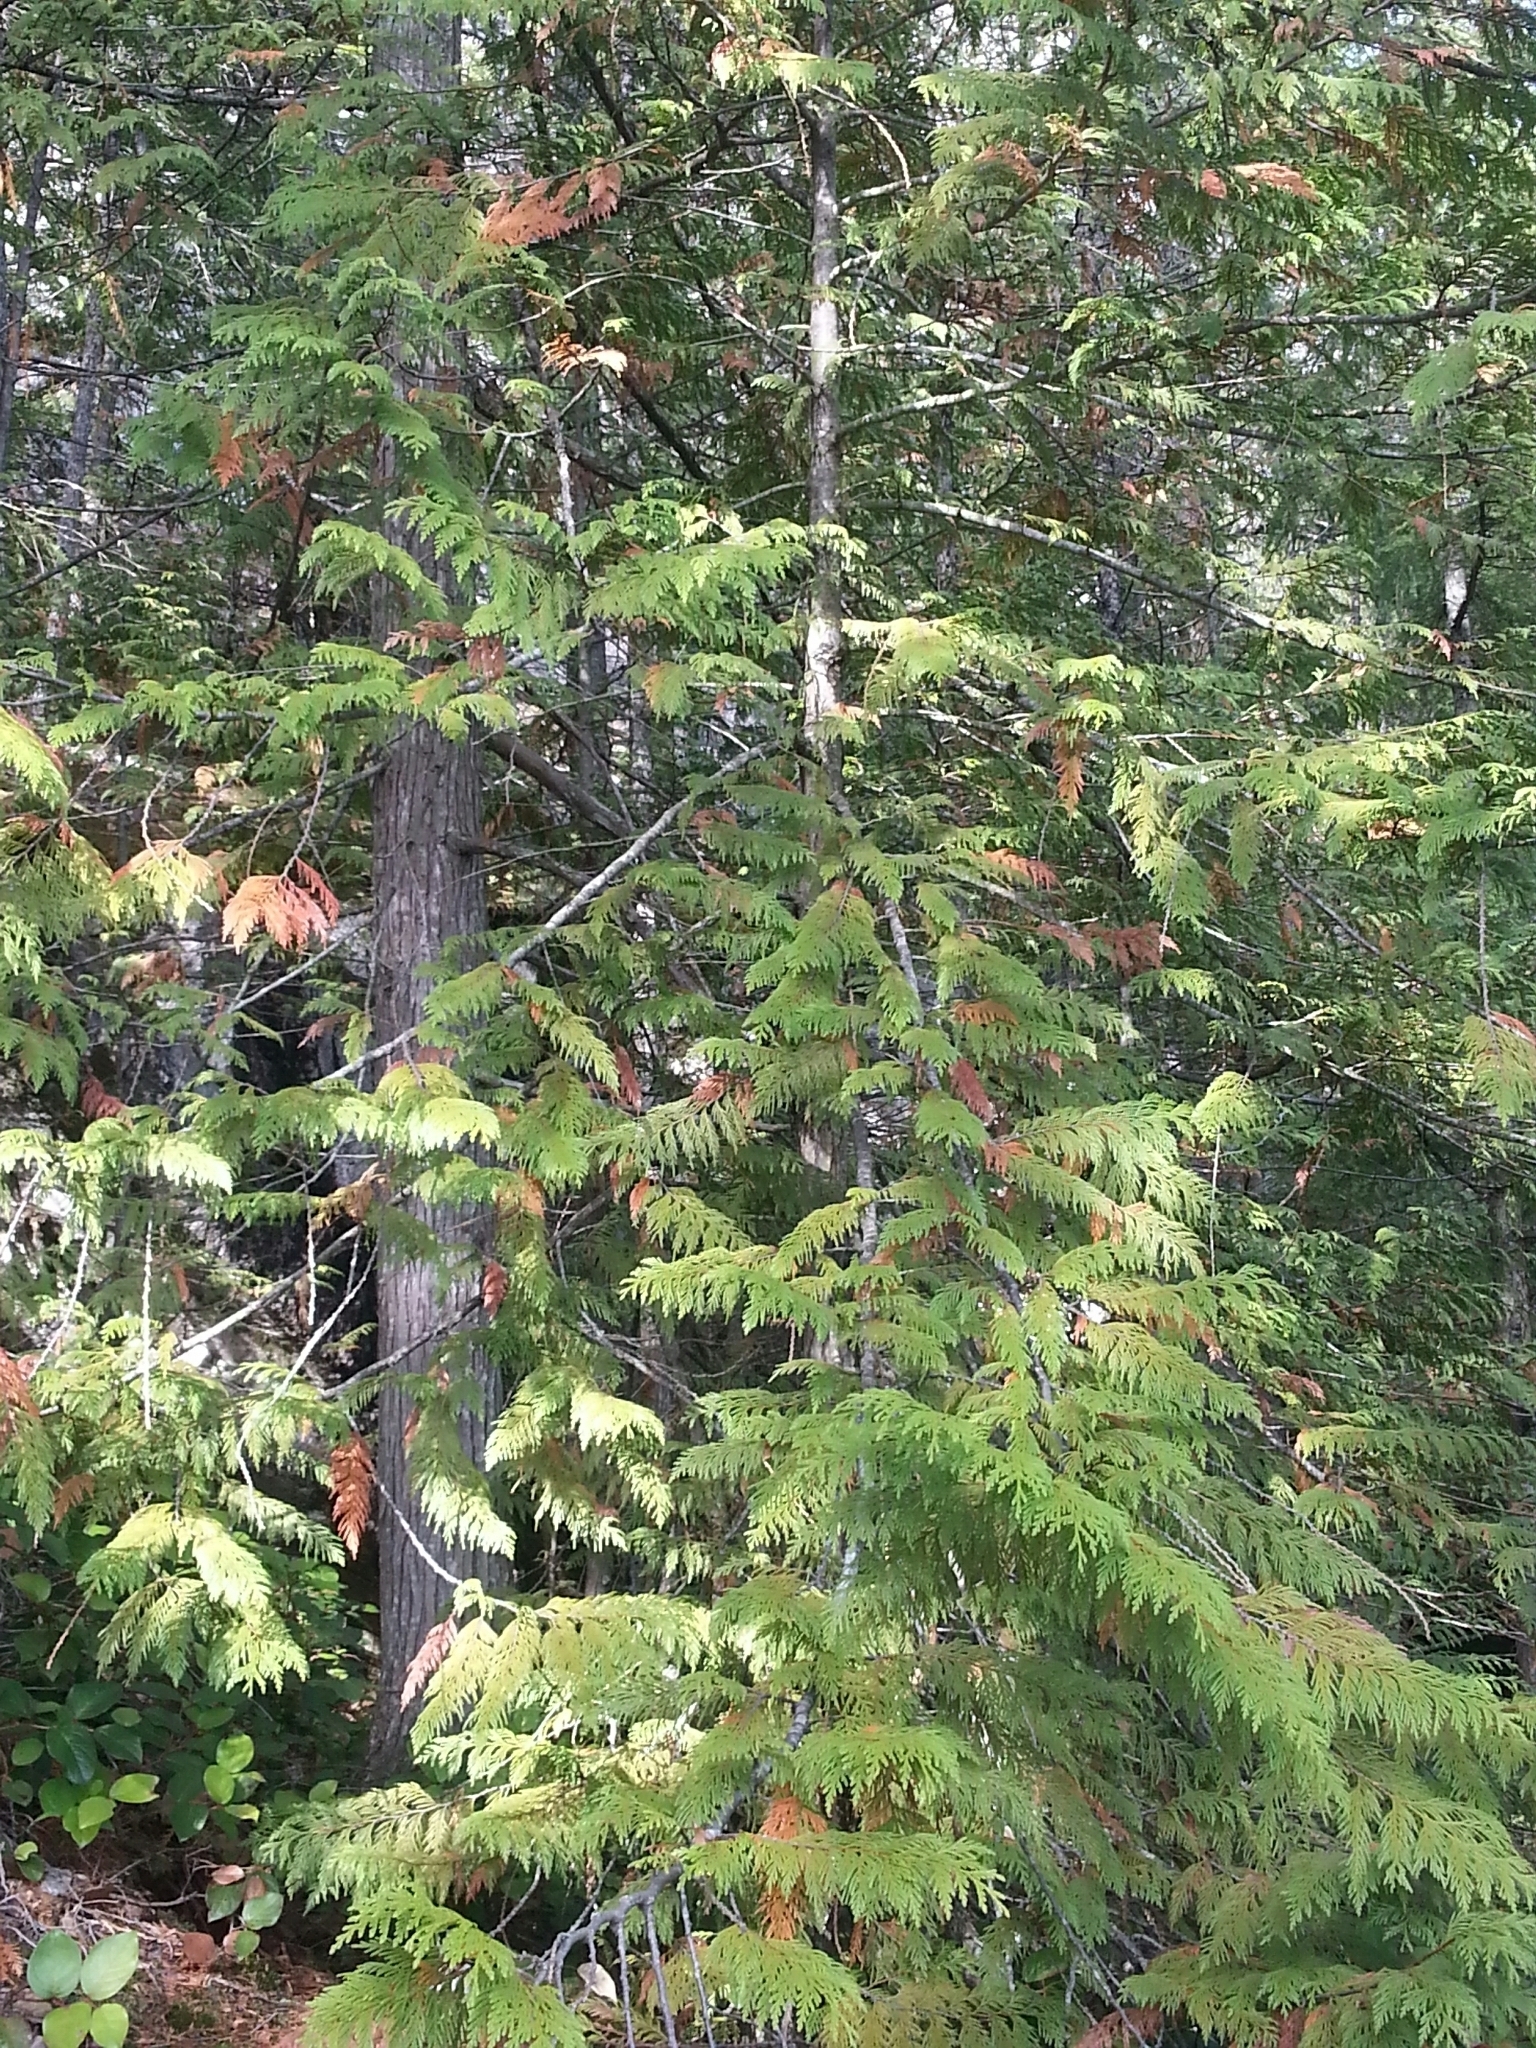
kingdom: Plantae
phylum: Tracheophyta
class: Pinopsida
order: Pinales
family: Cupressaceae
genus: Thuja
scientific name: Thuja plicata
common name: Western red-cedar
